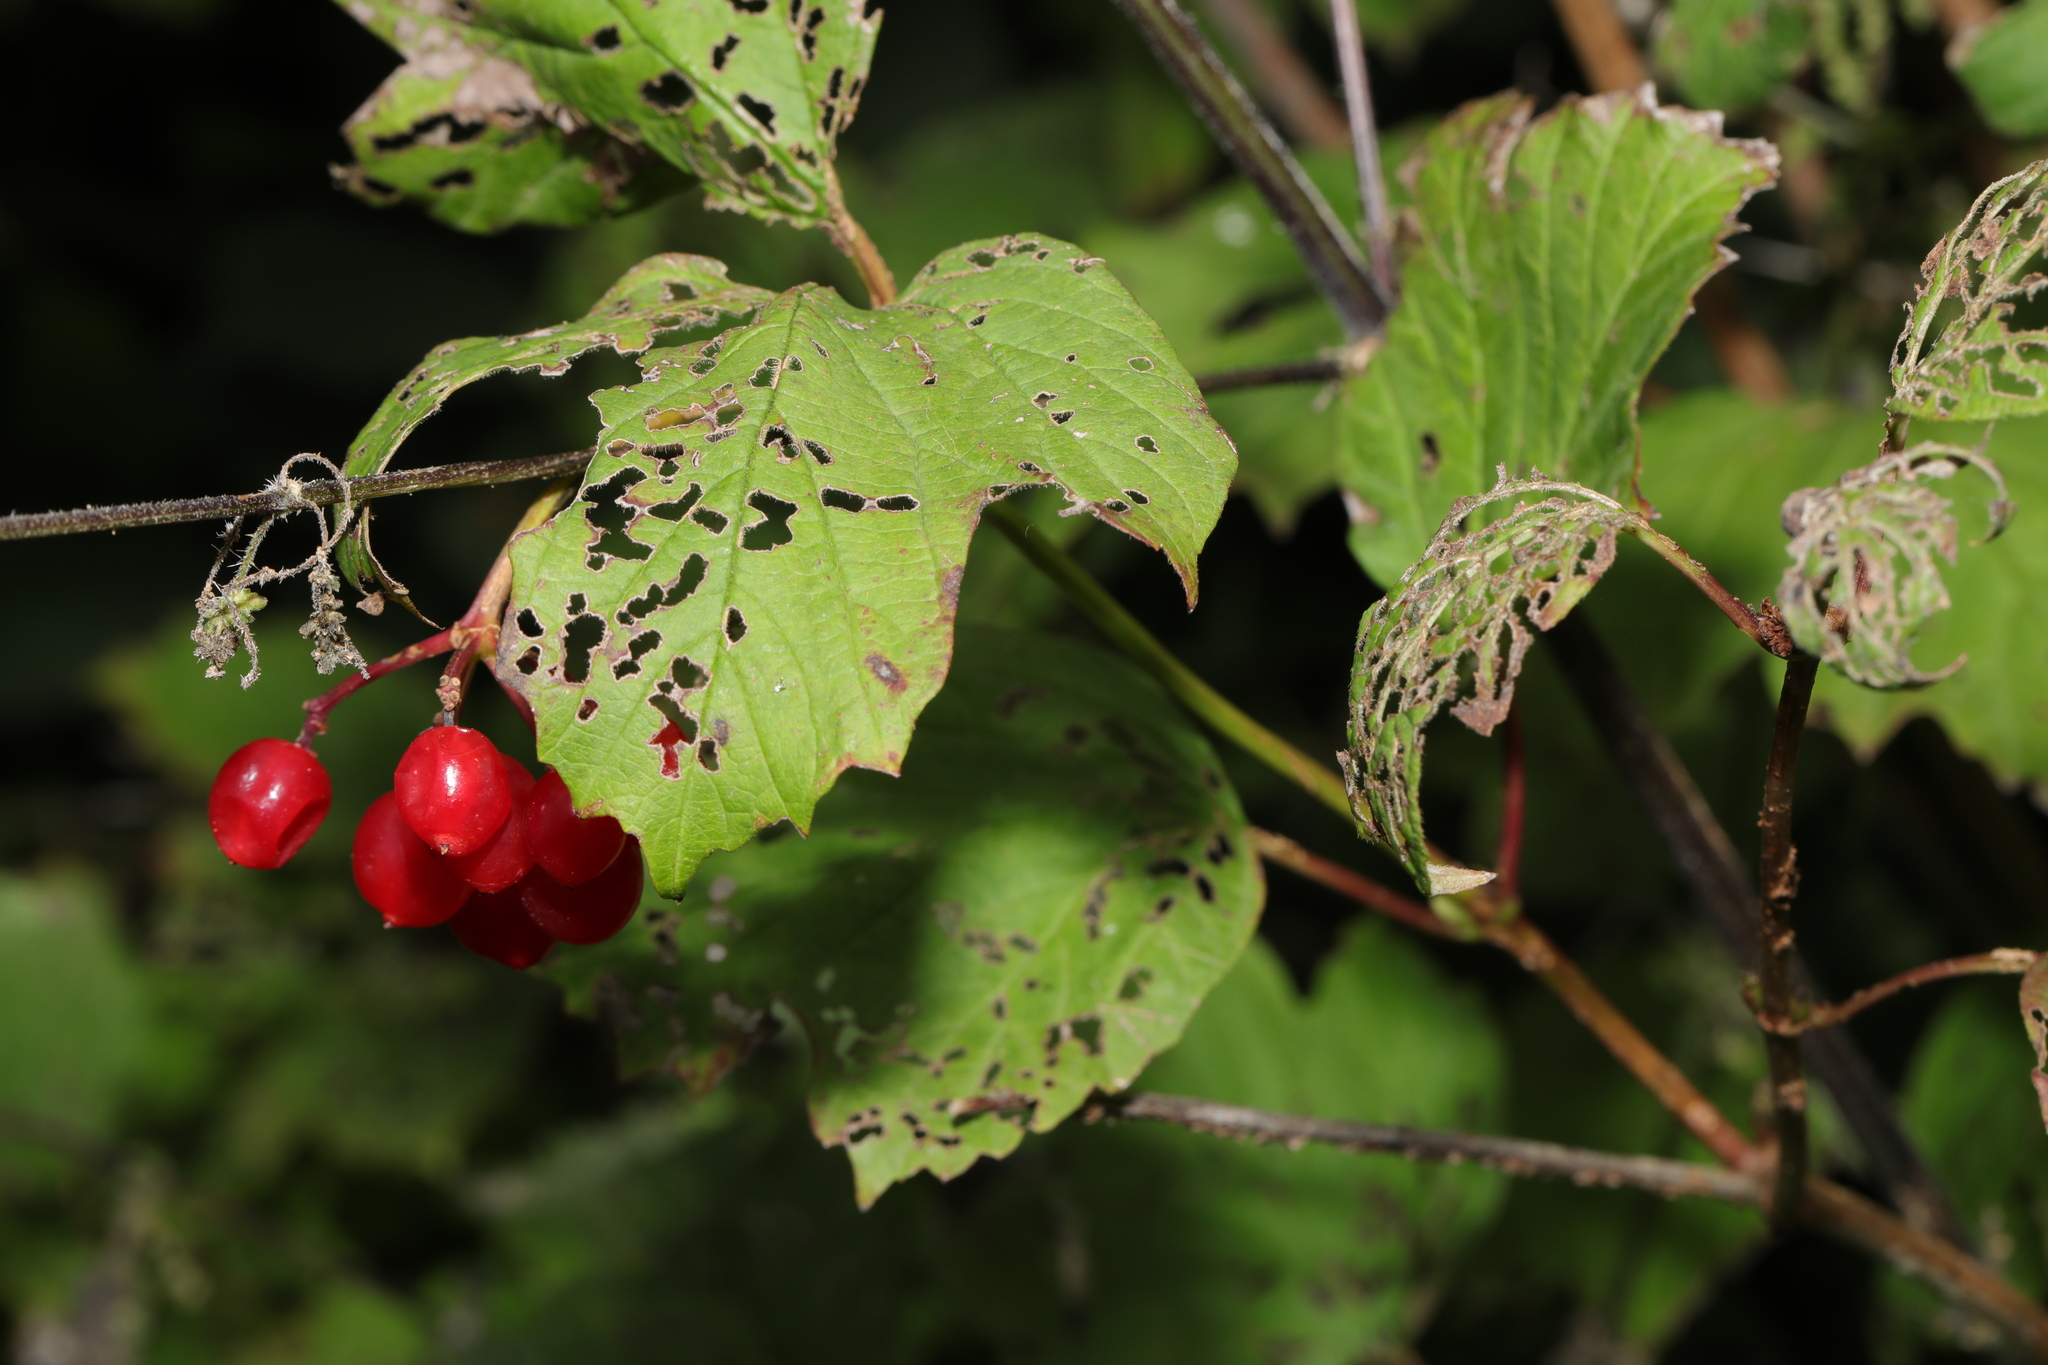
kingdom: Plantae
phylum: Tracheophyta
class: Magnoliopsida
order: Dipsacales
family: Viburnaceae
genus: Viburnum
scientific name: Viburnum opulus
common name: Guelder-rose
